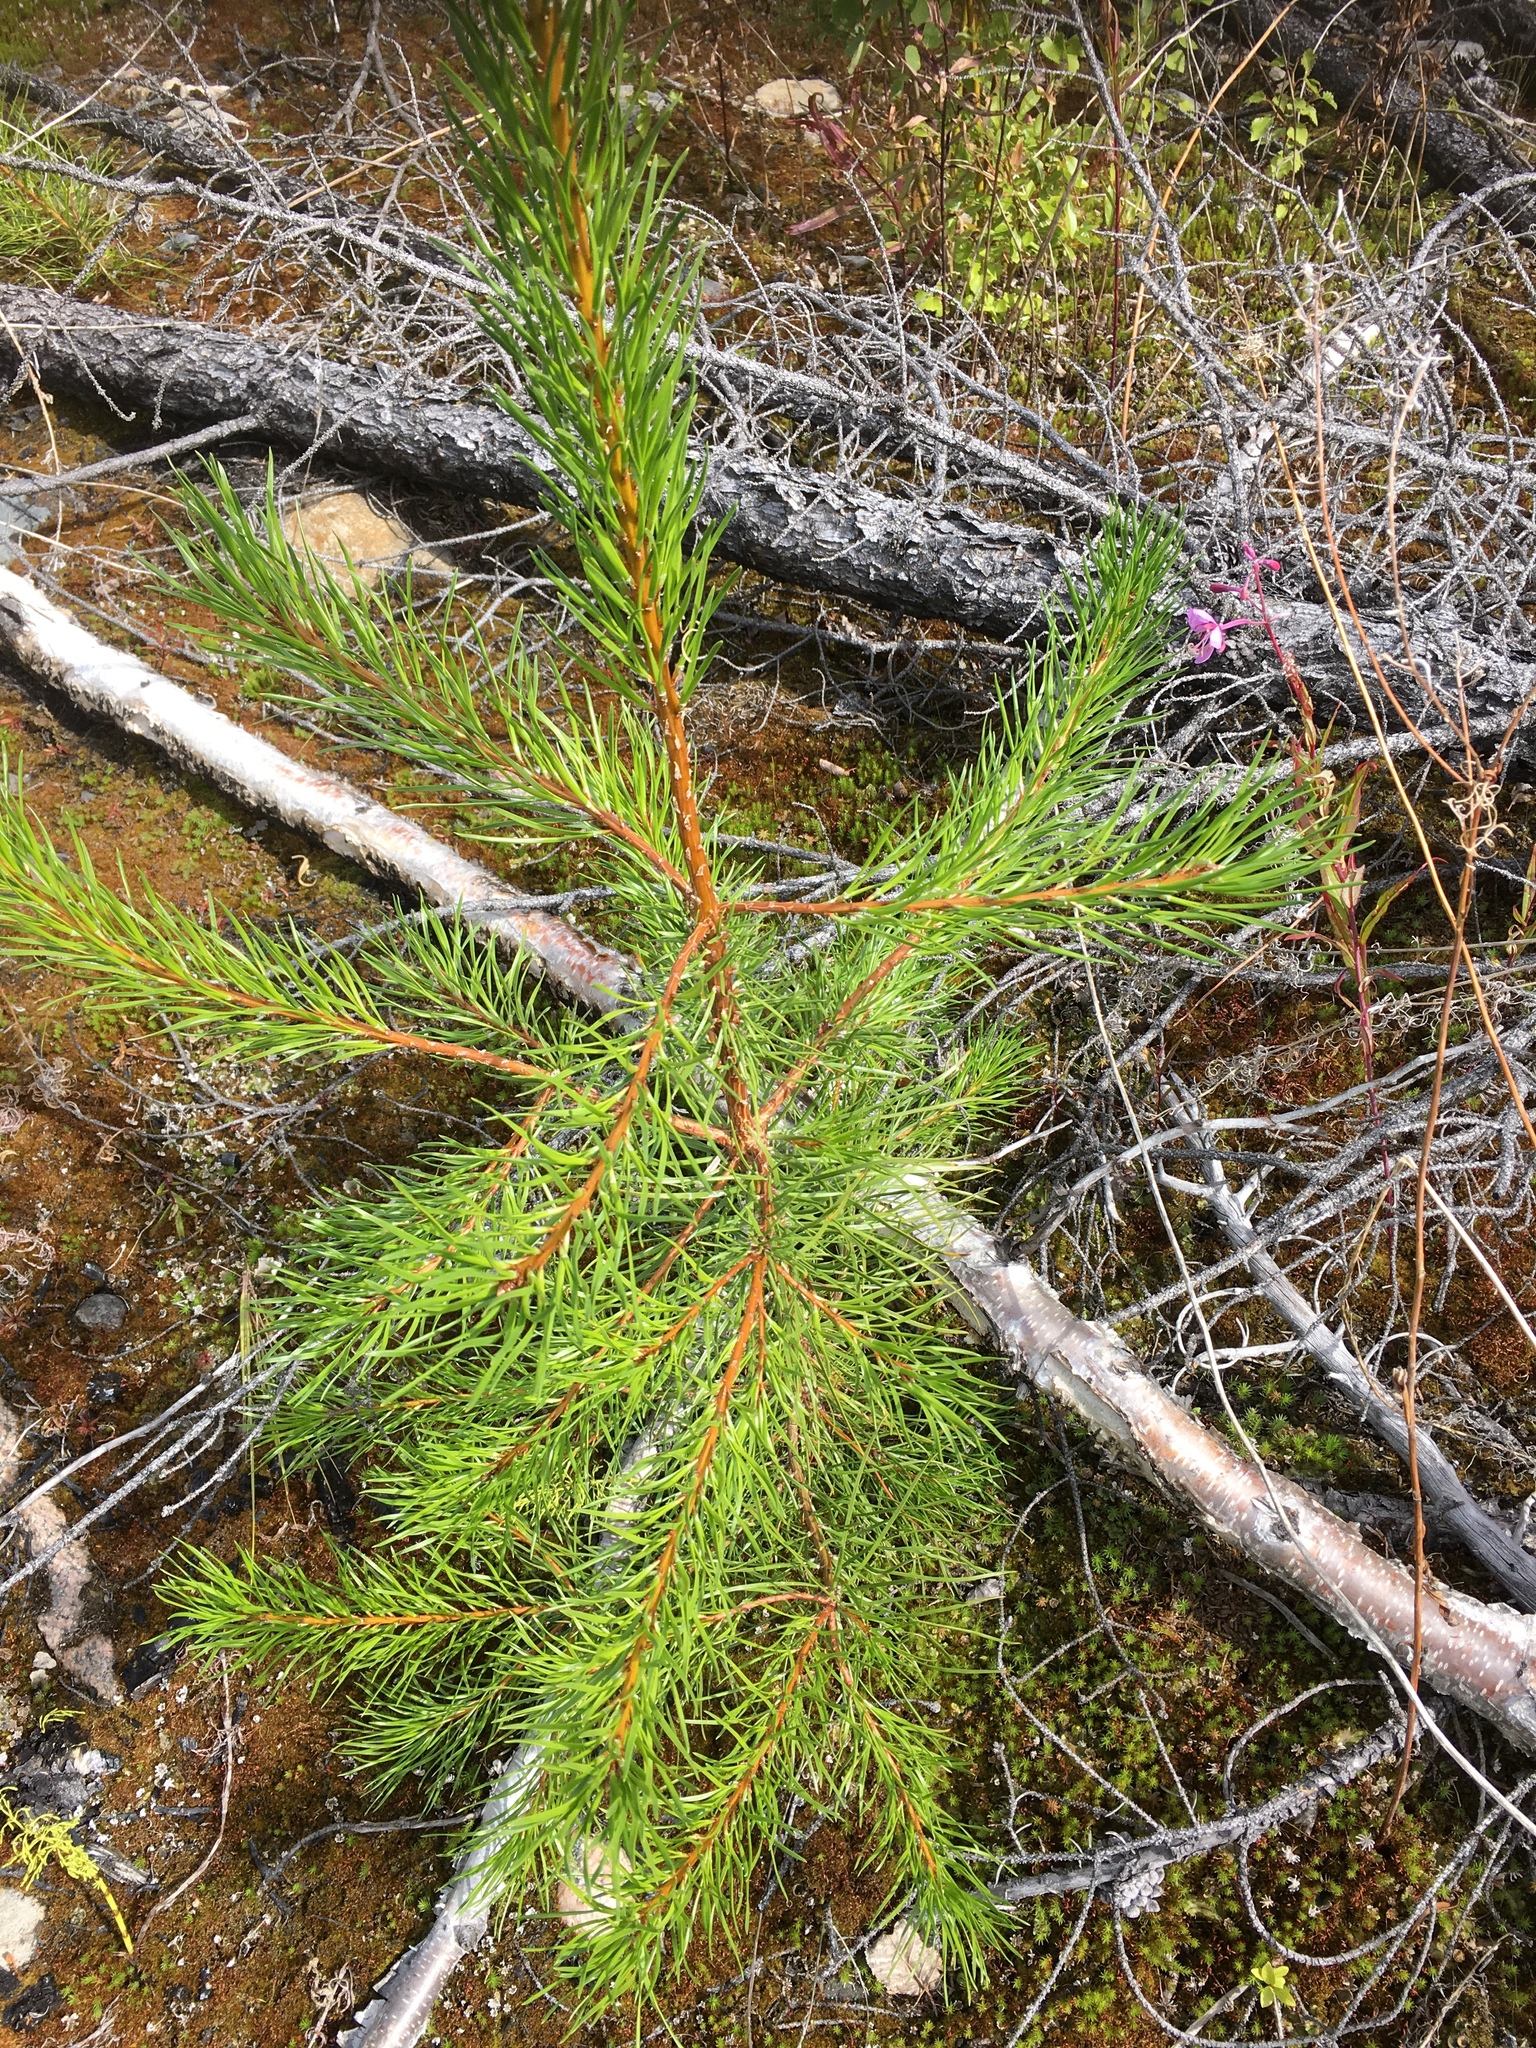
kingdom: Plantae
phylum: Tracheophyta
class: Pinopsida
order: Pinales
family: Pinaceae
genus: Pinus
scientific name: Pinus banksiana
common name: Jack pine
